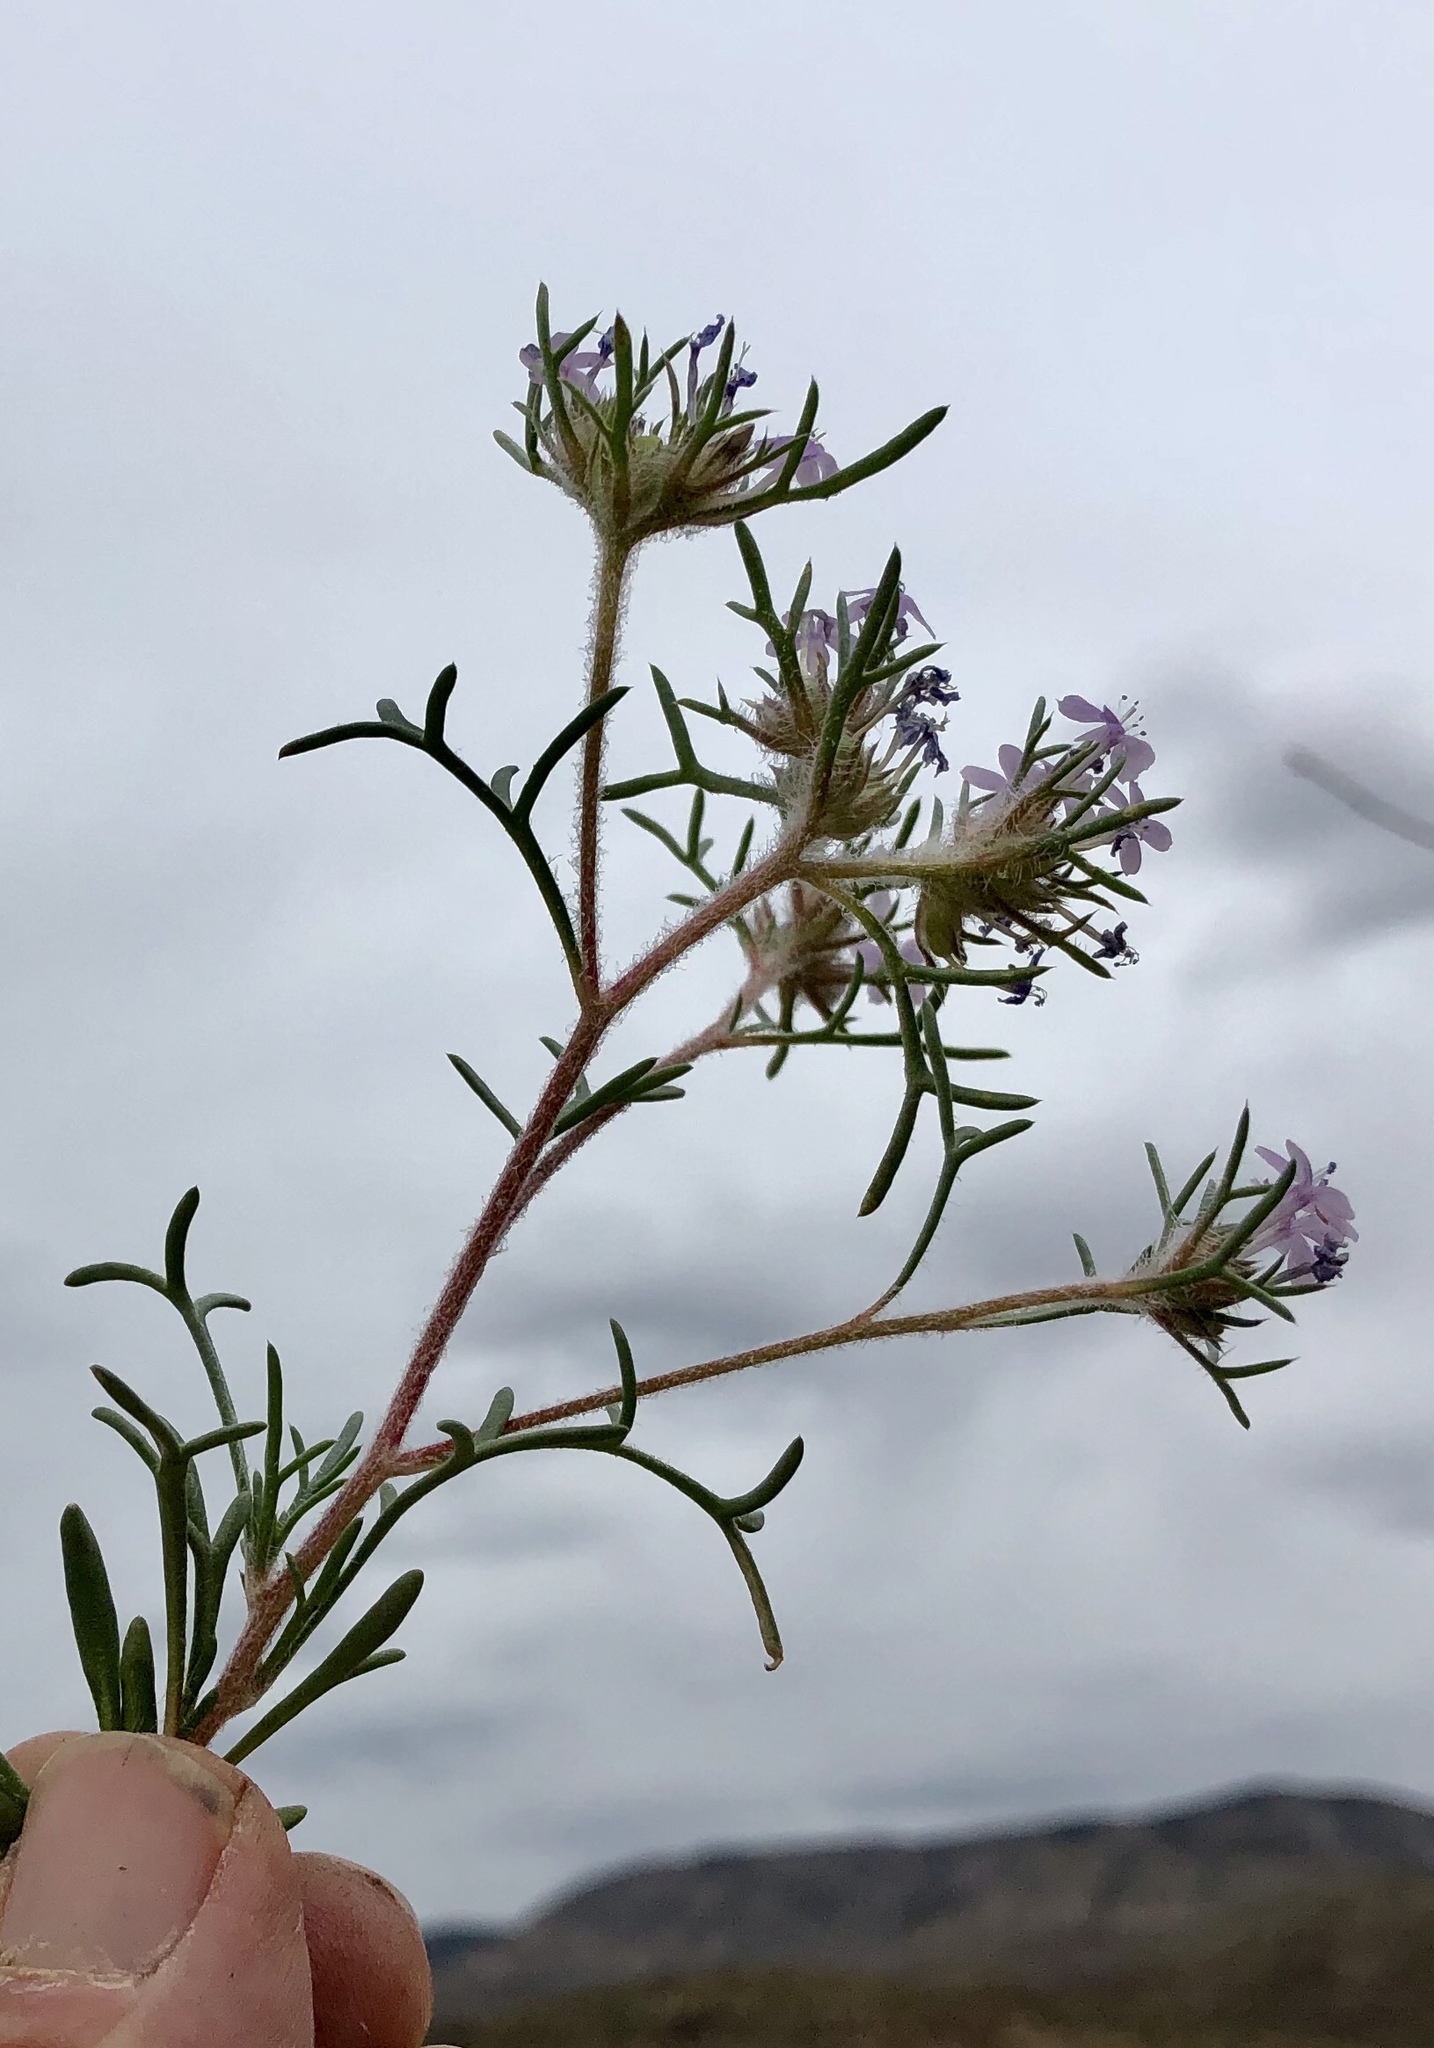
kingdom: Plantae
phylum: Tracheophyta
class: Magnoliopsida
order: Ericales
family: Polemoniaceae
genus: Ipomopsis
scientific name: Ipomopsis pumila
